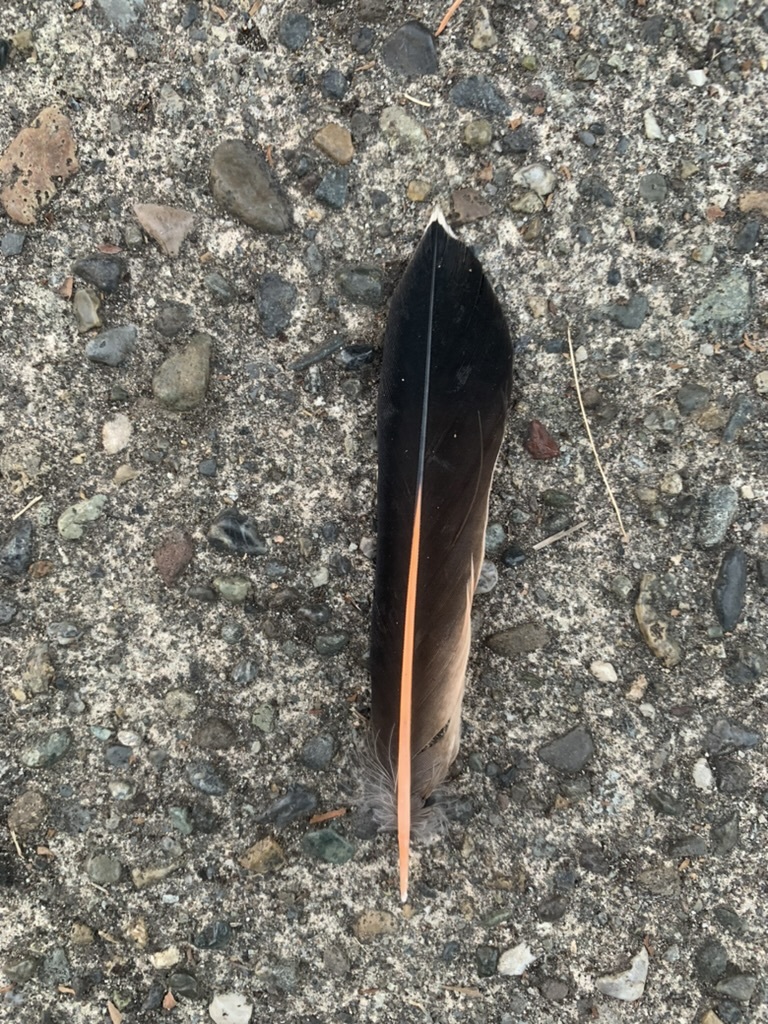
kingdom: Animalia
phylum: Chordata
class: Aves
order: Piciformes
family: Picidae
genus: Colaptes
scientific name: Colaptes auratus
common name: Northern flicker
